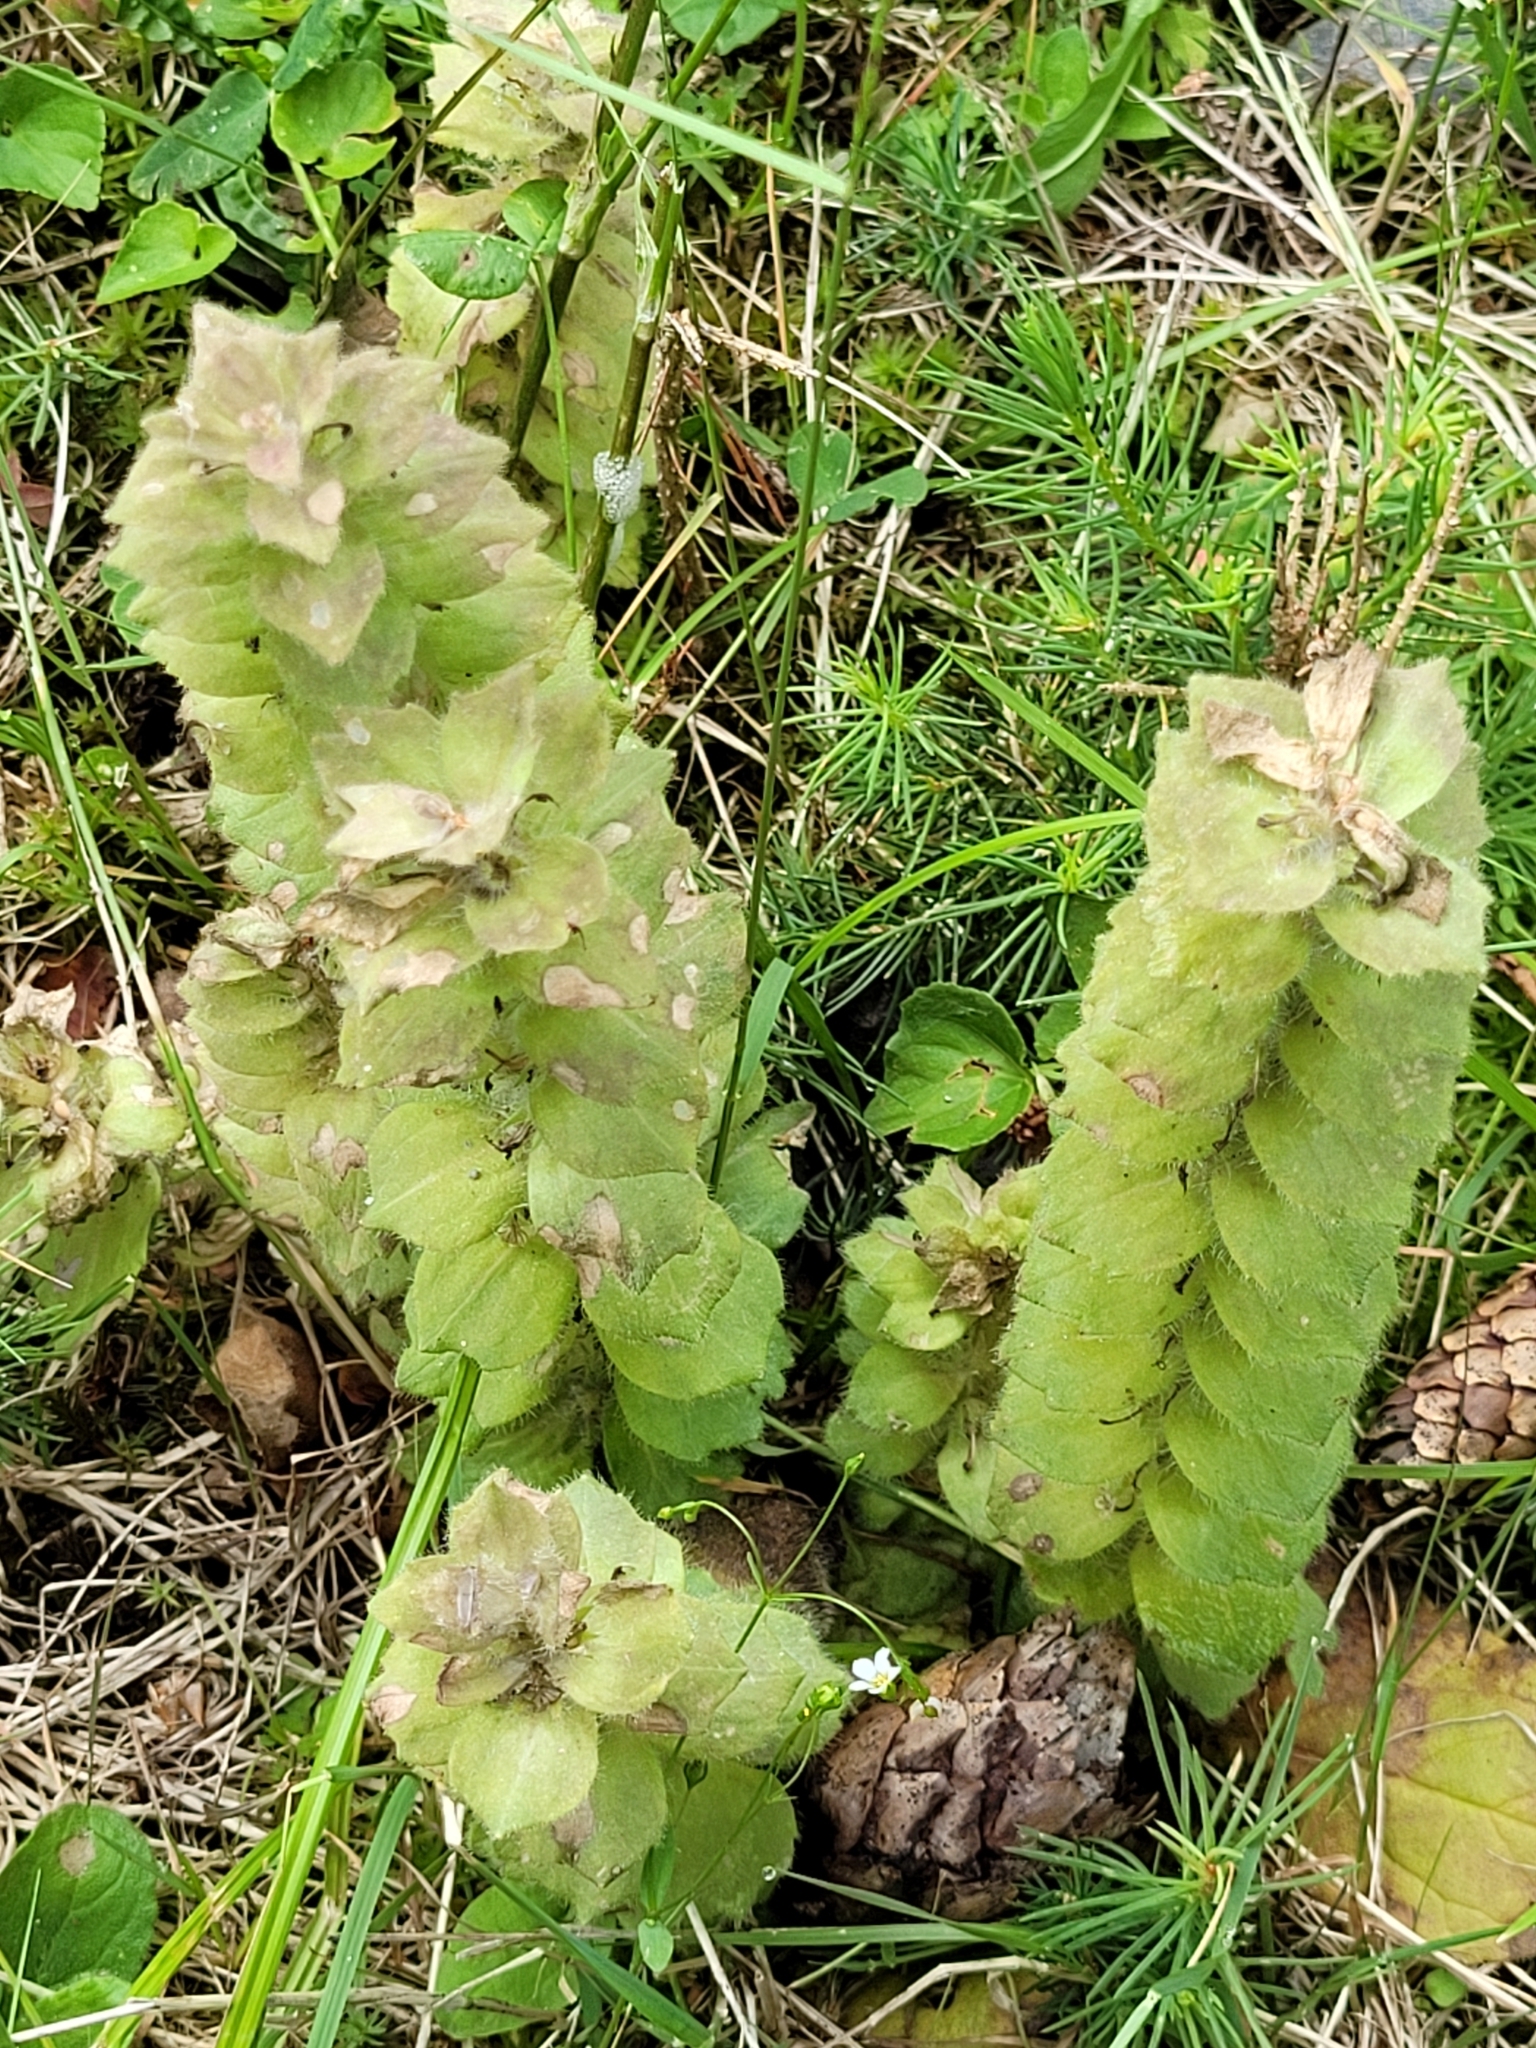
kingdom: Plantae
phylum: Tracheophyta
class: Magnoliopsida
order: Lamiales
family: Lamiaceae
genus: Ajuga
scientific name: Ajuga pyramidalis
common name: Pyramid bugle
